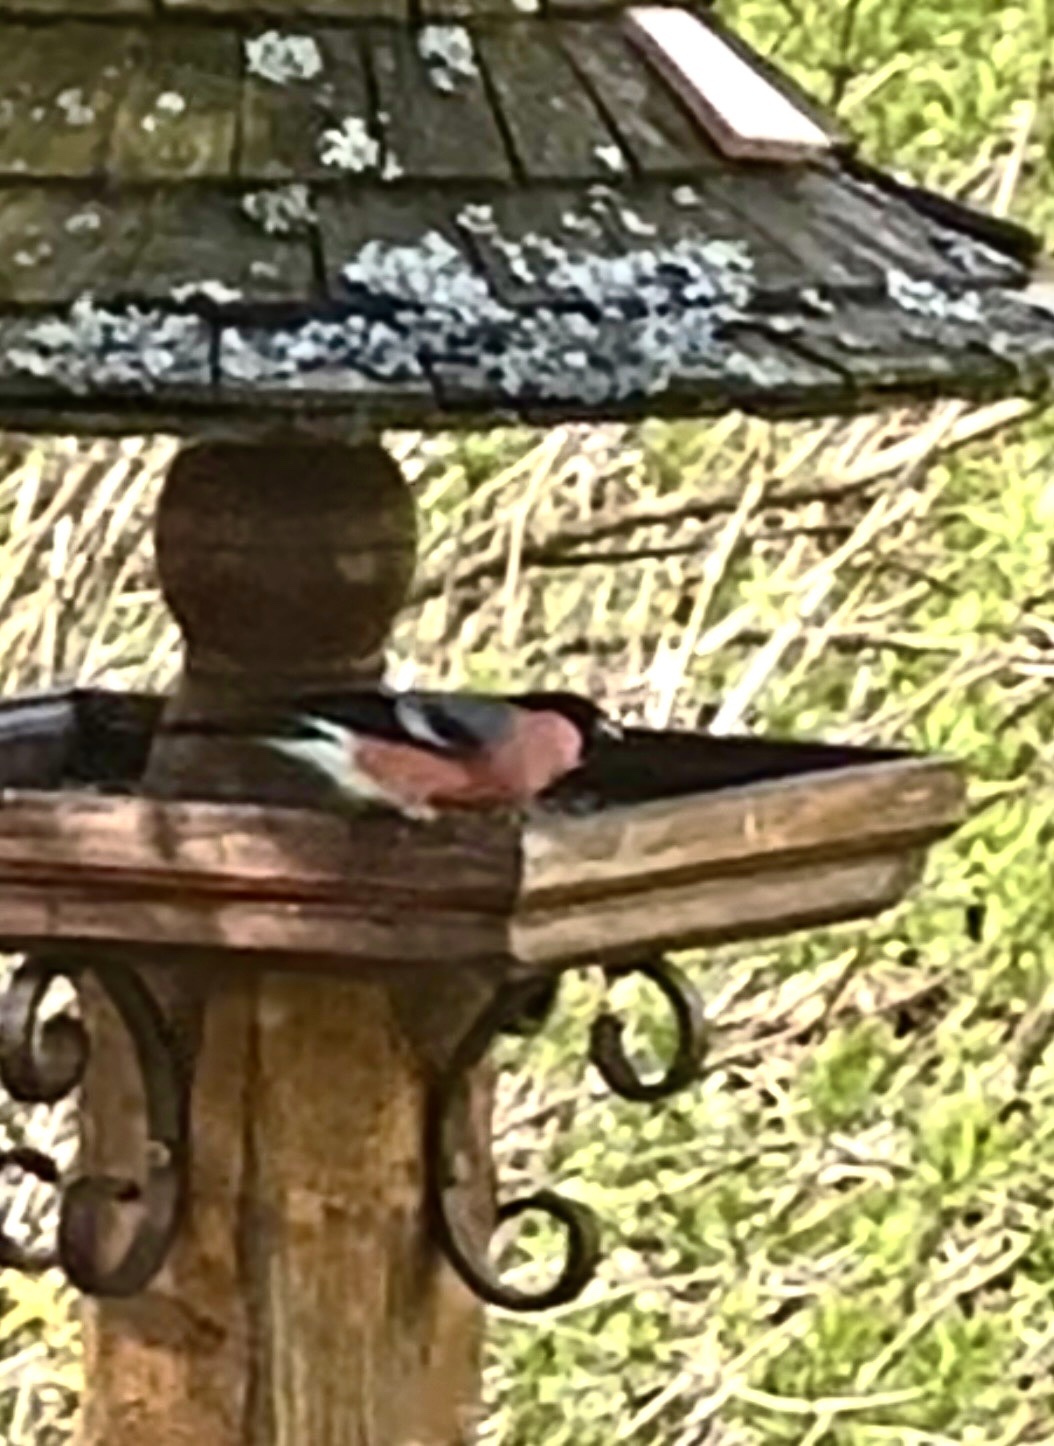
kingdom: Animalia
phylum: Chordata
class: Aves
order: Passeriformes
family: Fringillidae
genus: Pyrrhula
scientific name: Pyrrhula pyrrhula
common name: Eurasian bullfinch
